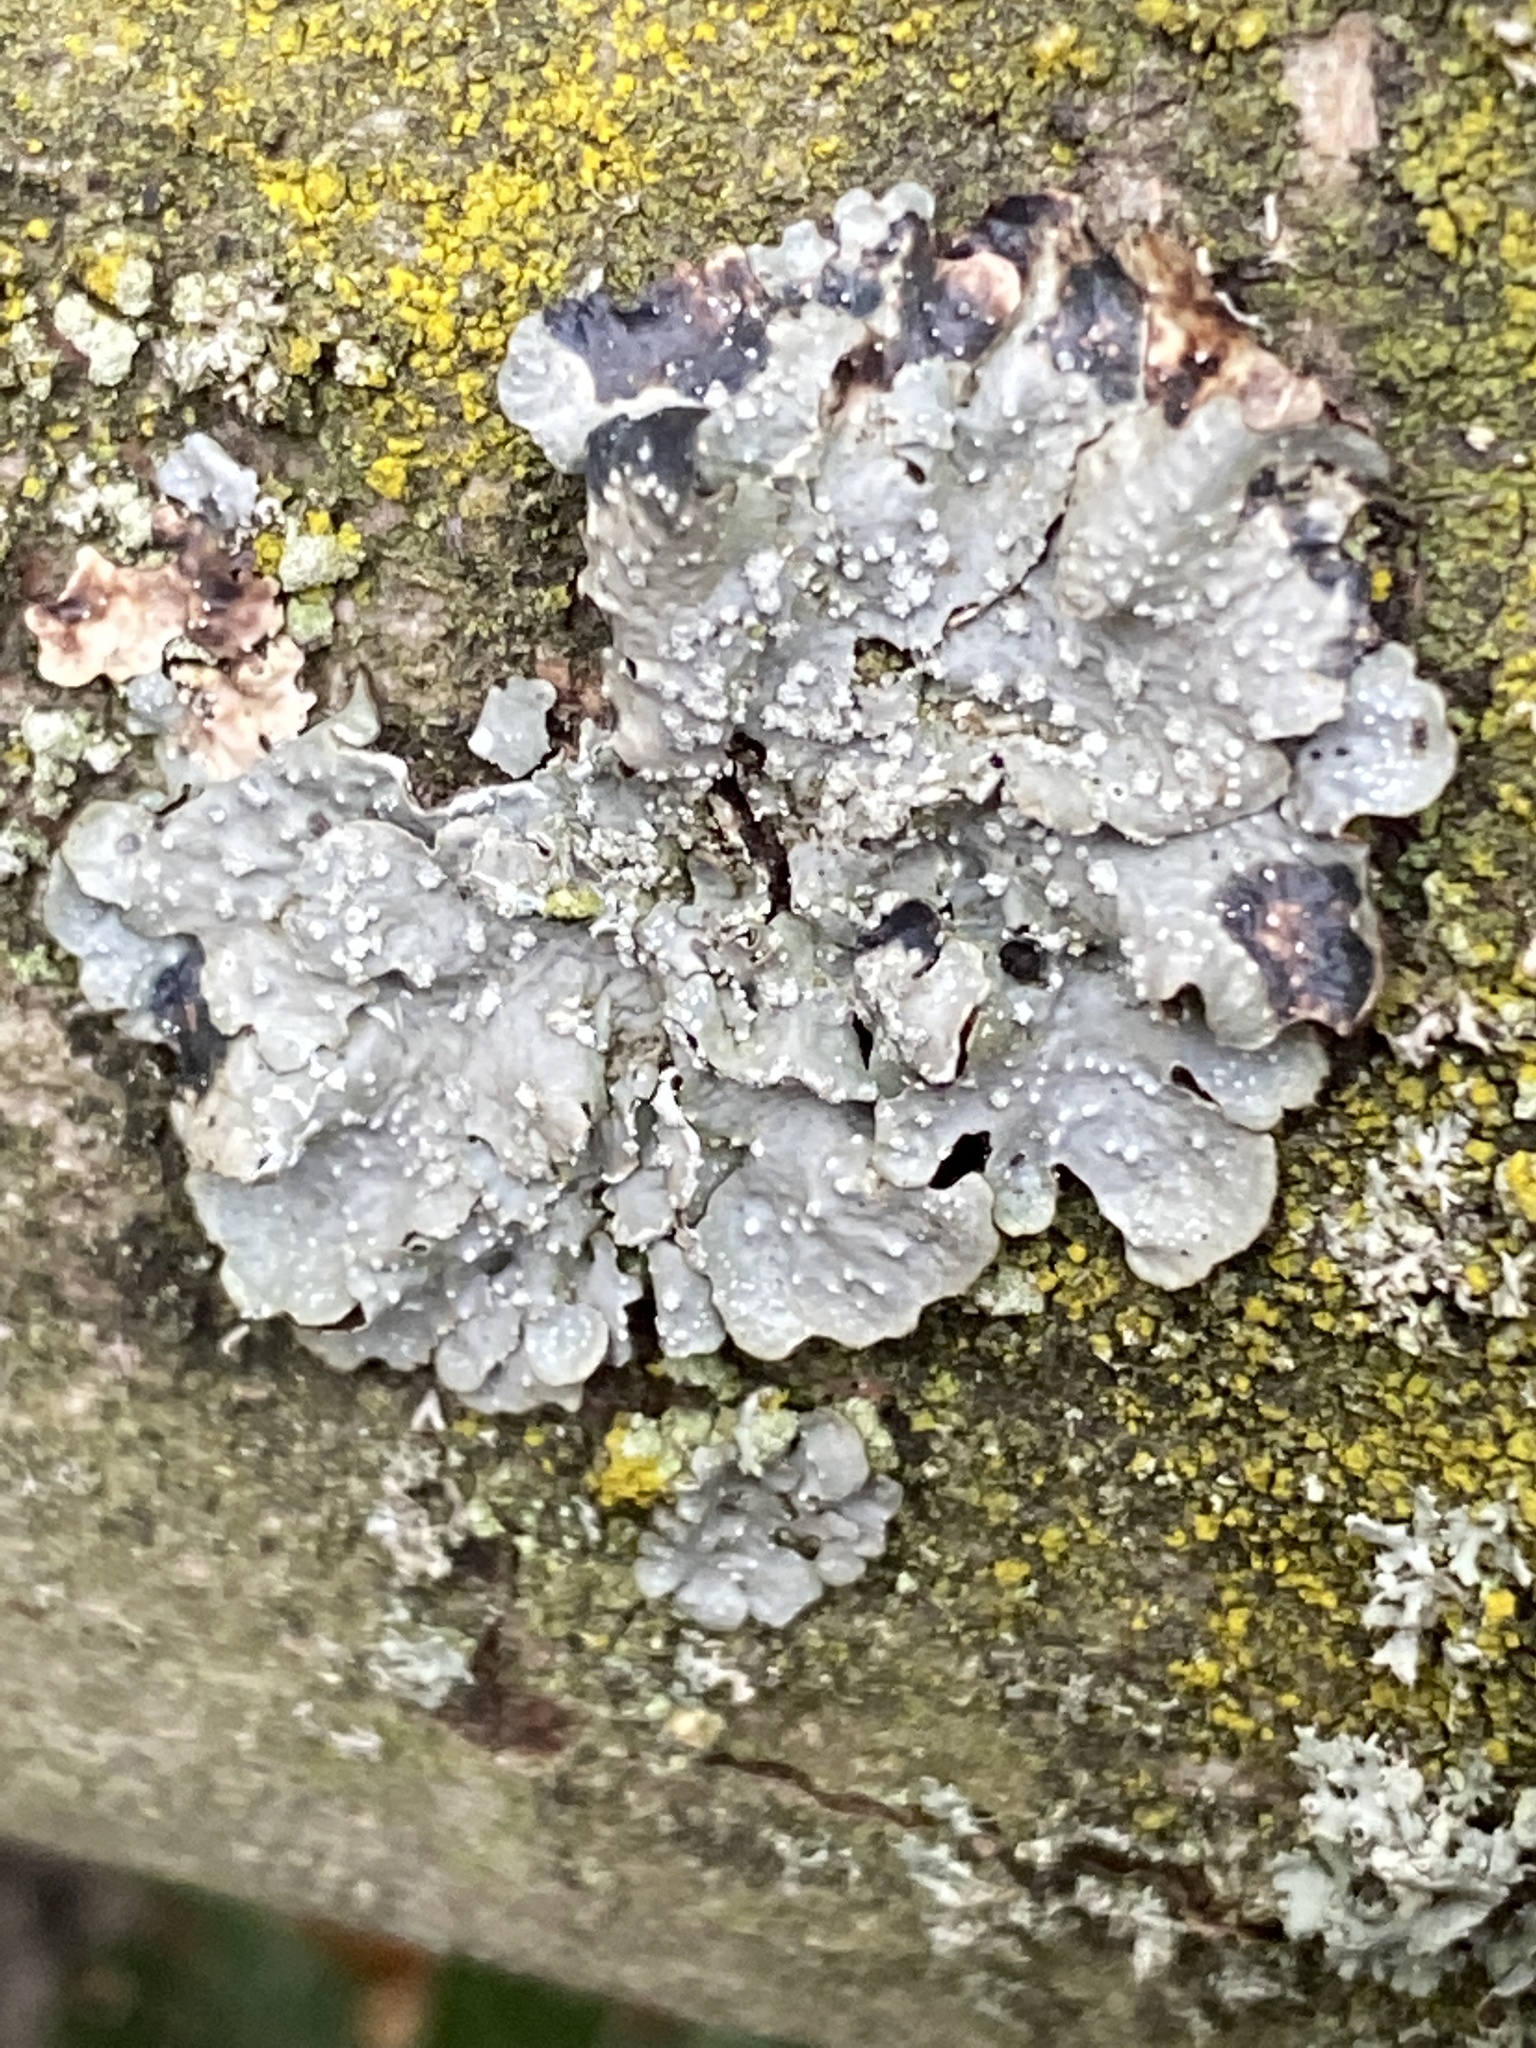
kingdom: Fungi
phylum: Ascomycota
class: Lecanoromycetes
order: Lecanorales
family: Parmeliaceae
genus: Punctelia
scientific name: Punctelia
